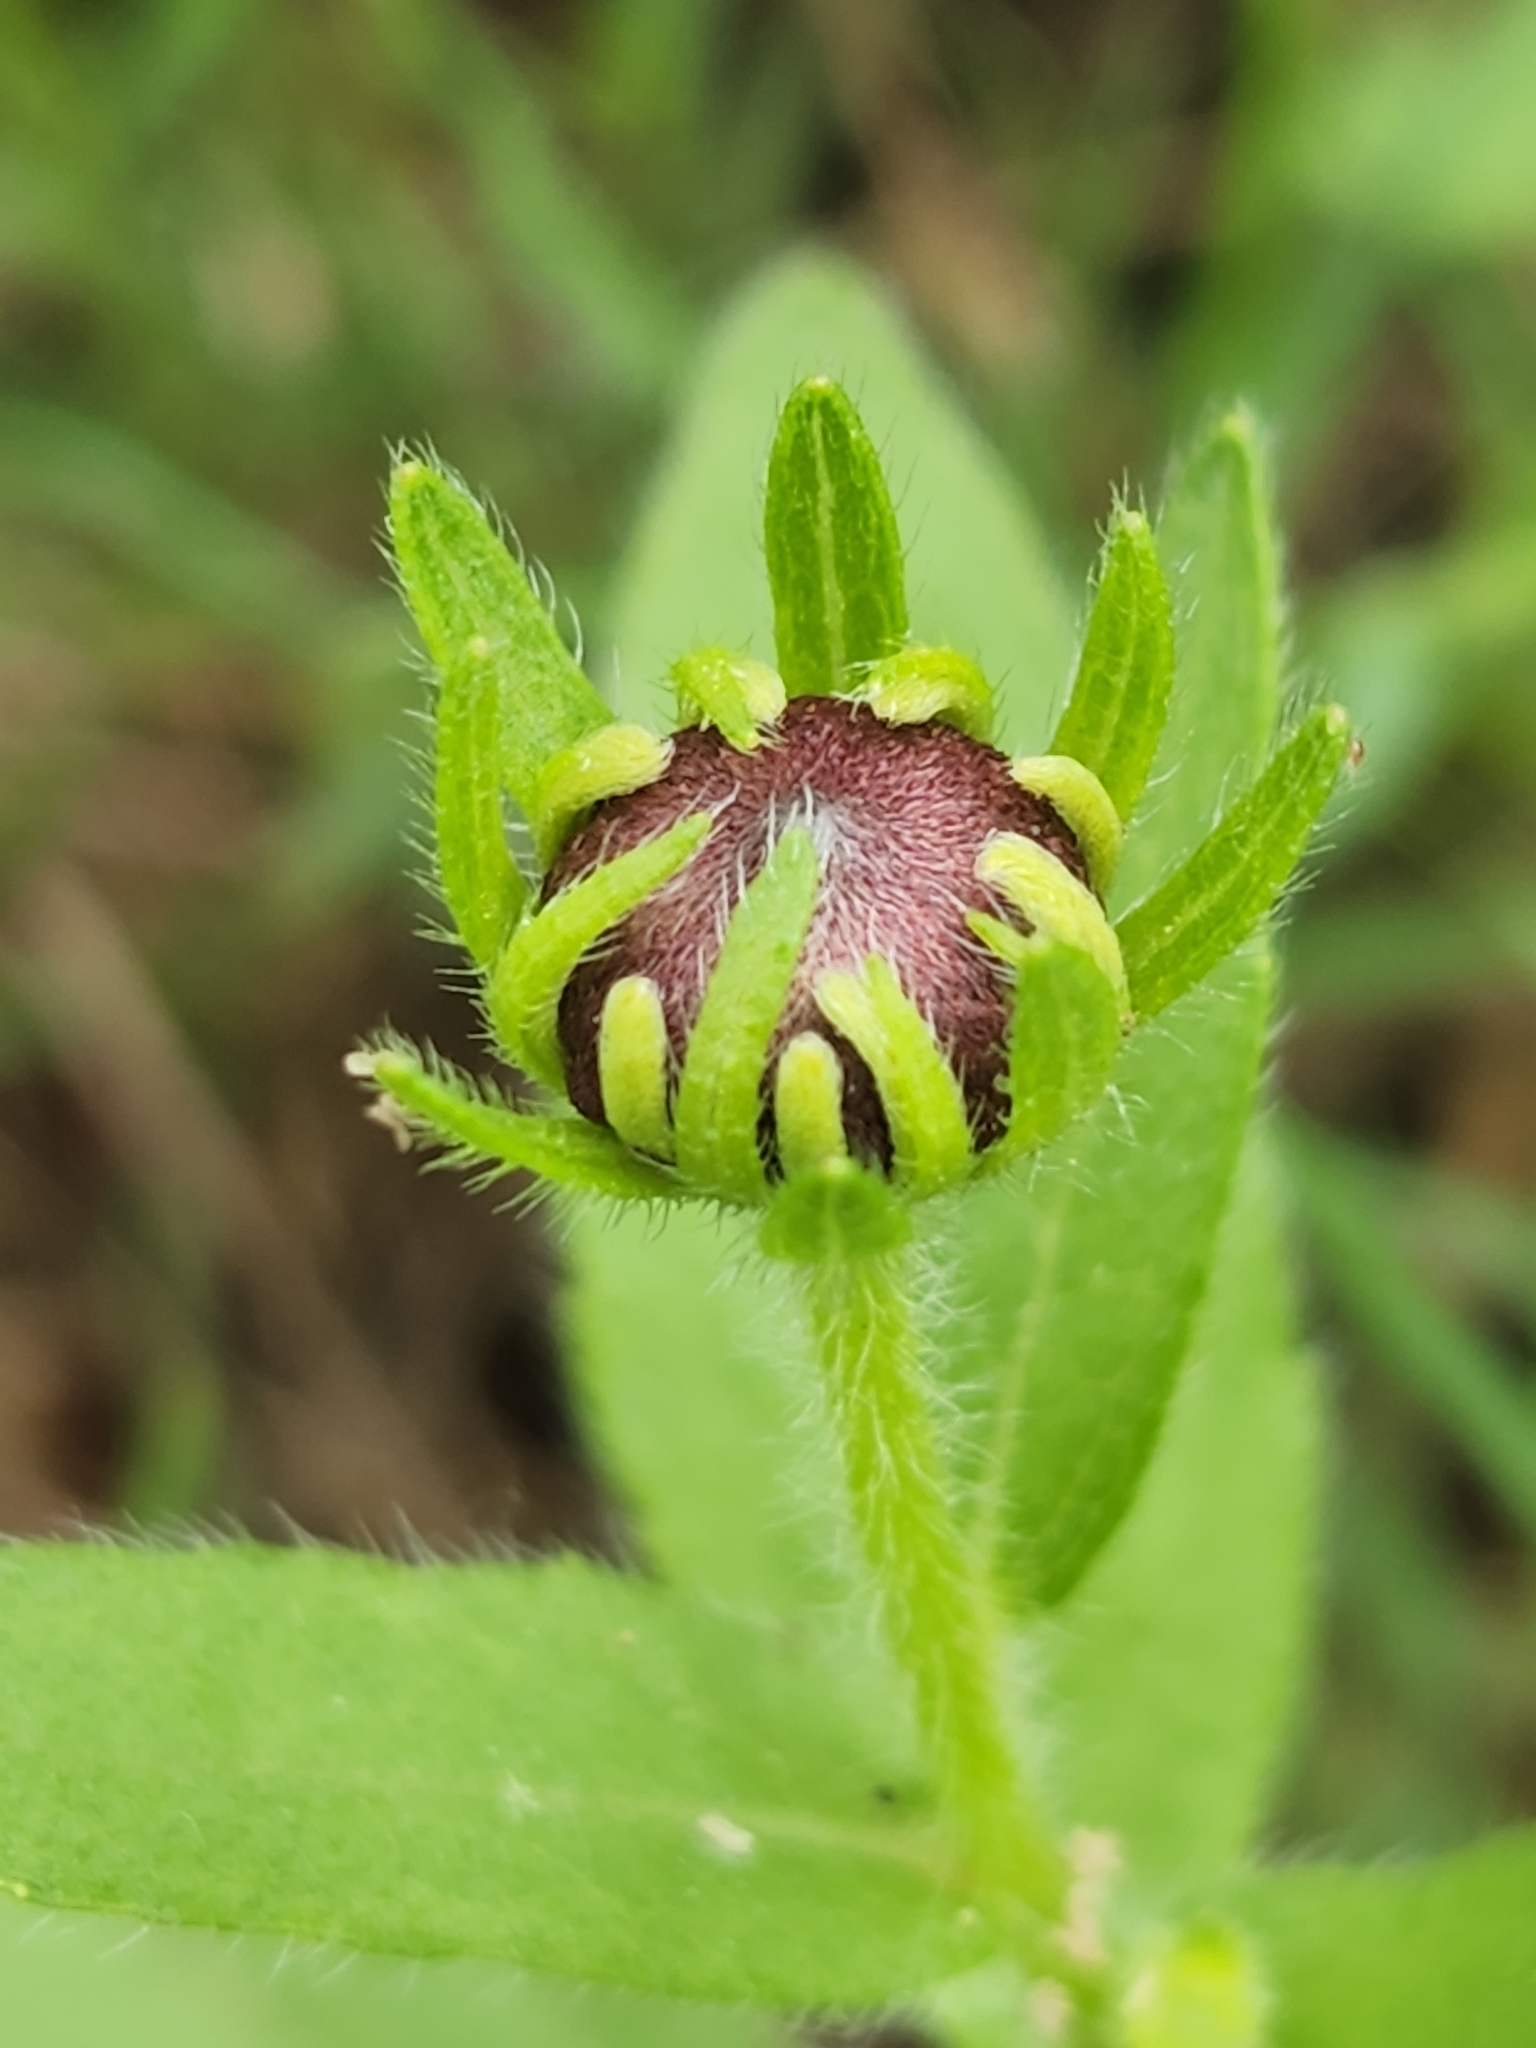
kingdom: Plantae
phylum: Tracheophyta
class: Magnoliopsida
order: Asterales
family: Asteraceae
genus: Rudbeckia
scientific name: Rudbeckia hirta
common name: Black-eyed-susan
